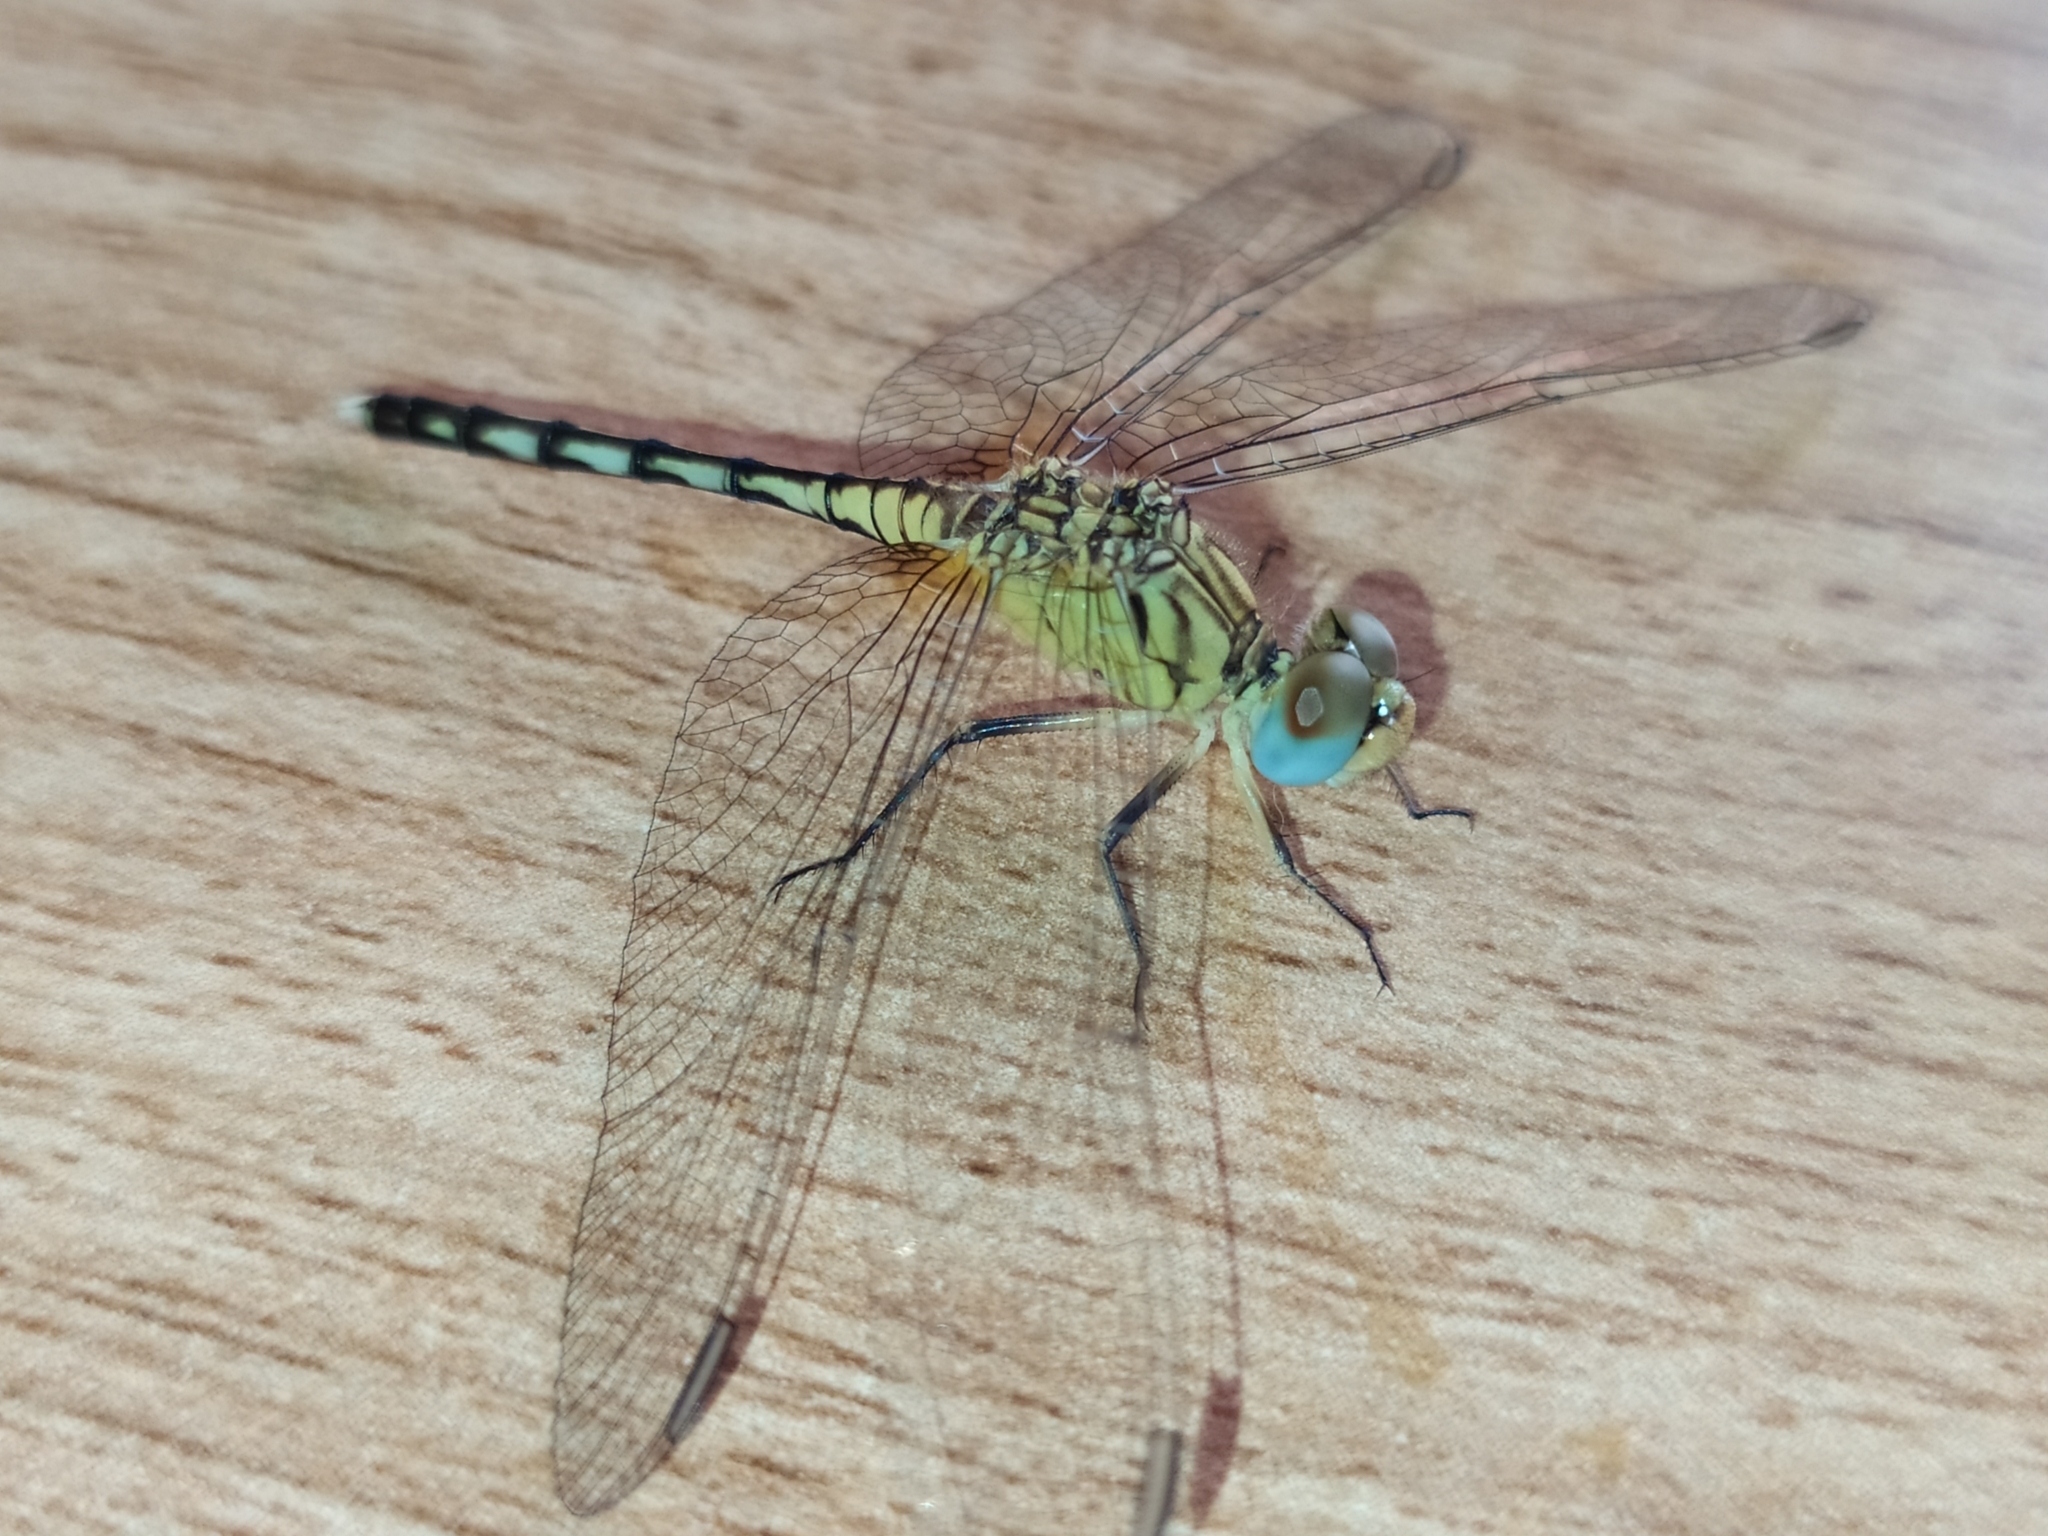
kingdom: Animalia
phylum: Arthropoda
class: Insecta
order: Odonata
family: Libellulidae
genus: Diplacodes
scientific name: Diplacodes trivialis
